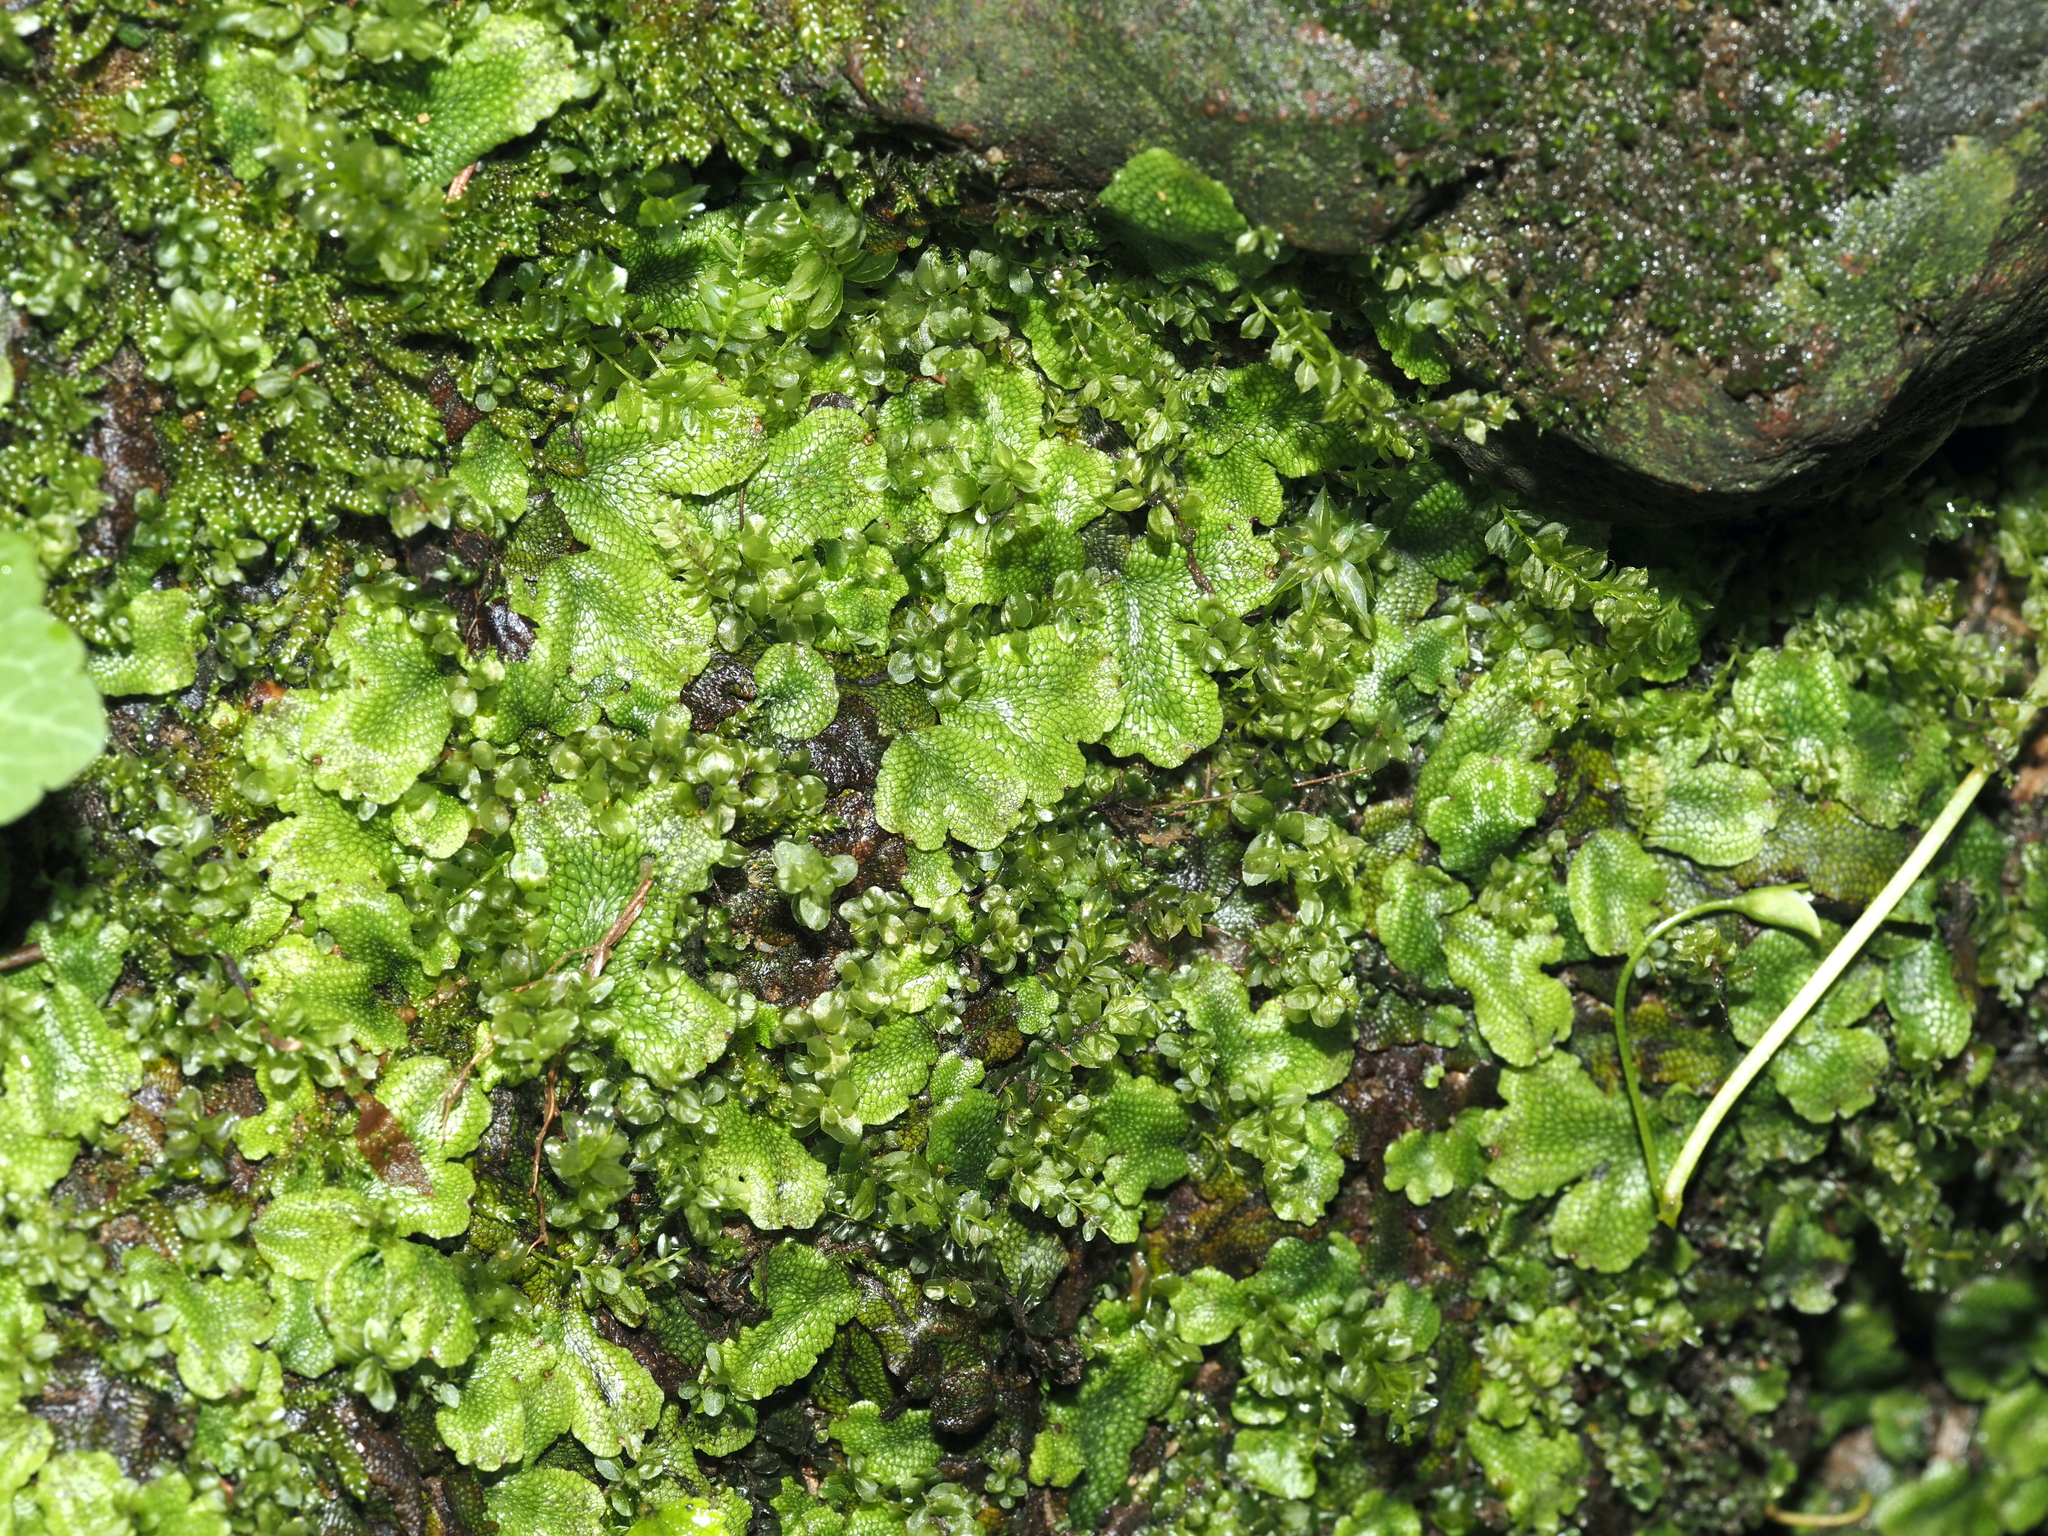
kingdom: Plantae
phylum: Marchantiophyta
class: Marchantiopsida
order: Marchantiales
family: Conocephalaceae
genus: Conocephalum
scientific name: Conocephalum salebrosum
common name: Cat-tongue liverwort
